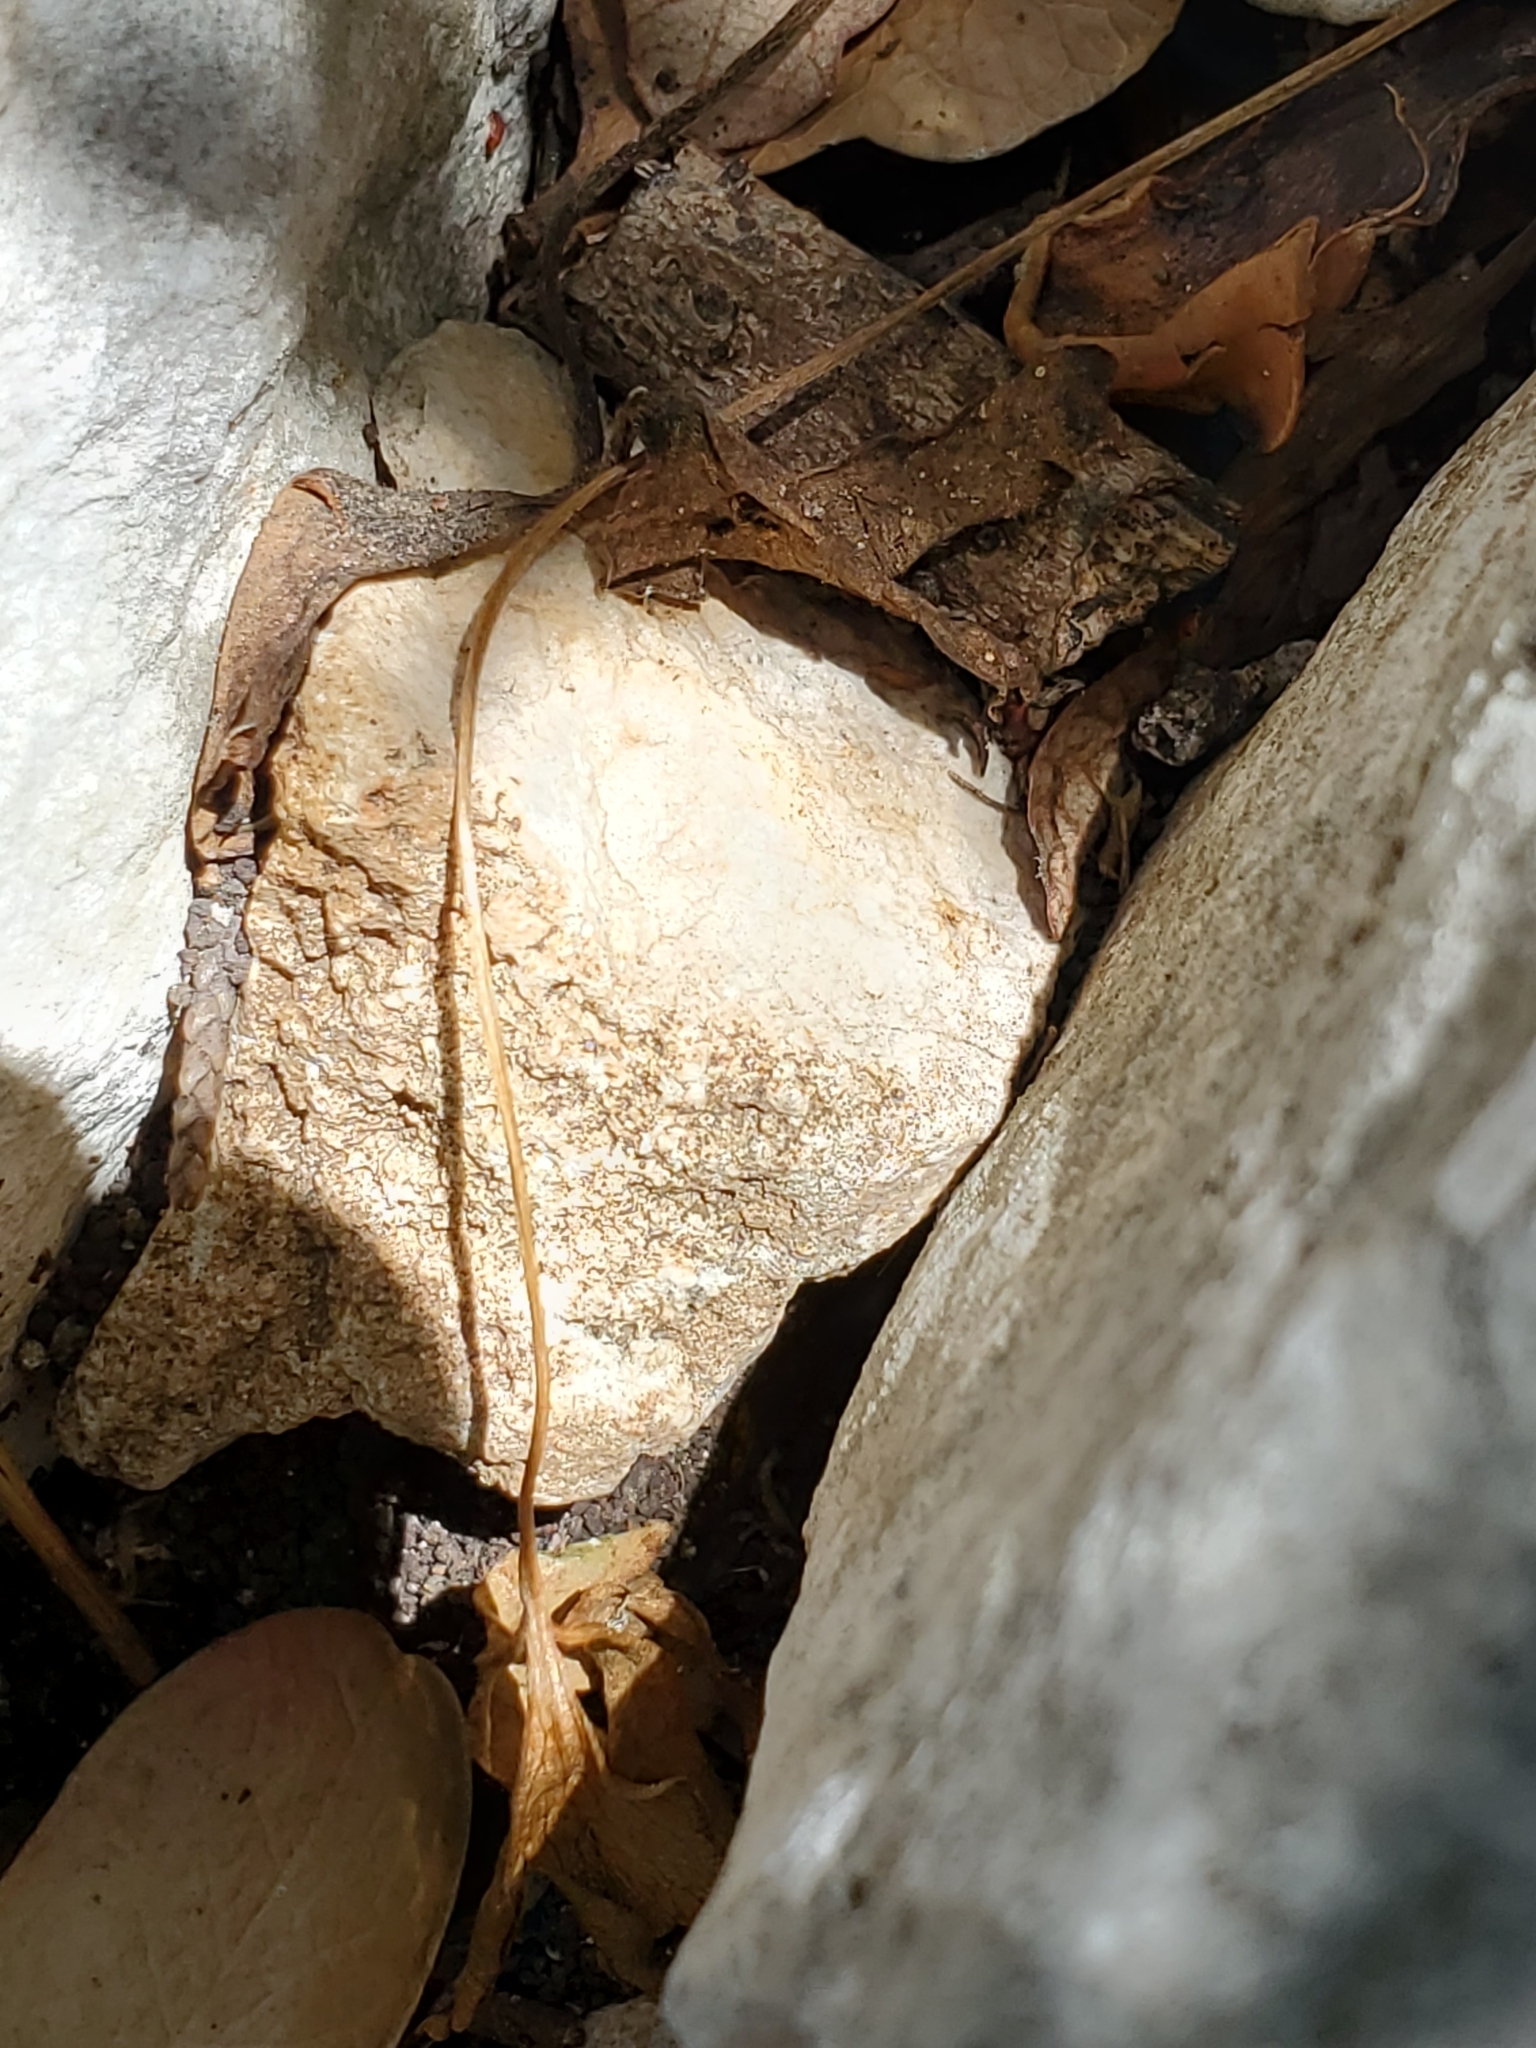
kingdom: Plantae
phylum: Tracheophyta
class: Magnoliopsida
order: Ranunculales
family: Ranunculaceae
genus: Anemone
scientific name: Anemone edwardsiana
